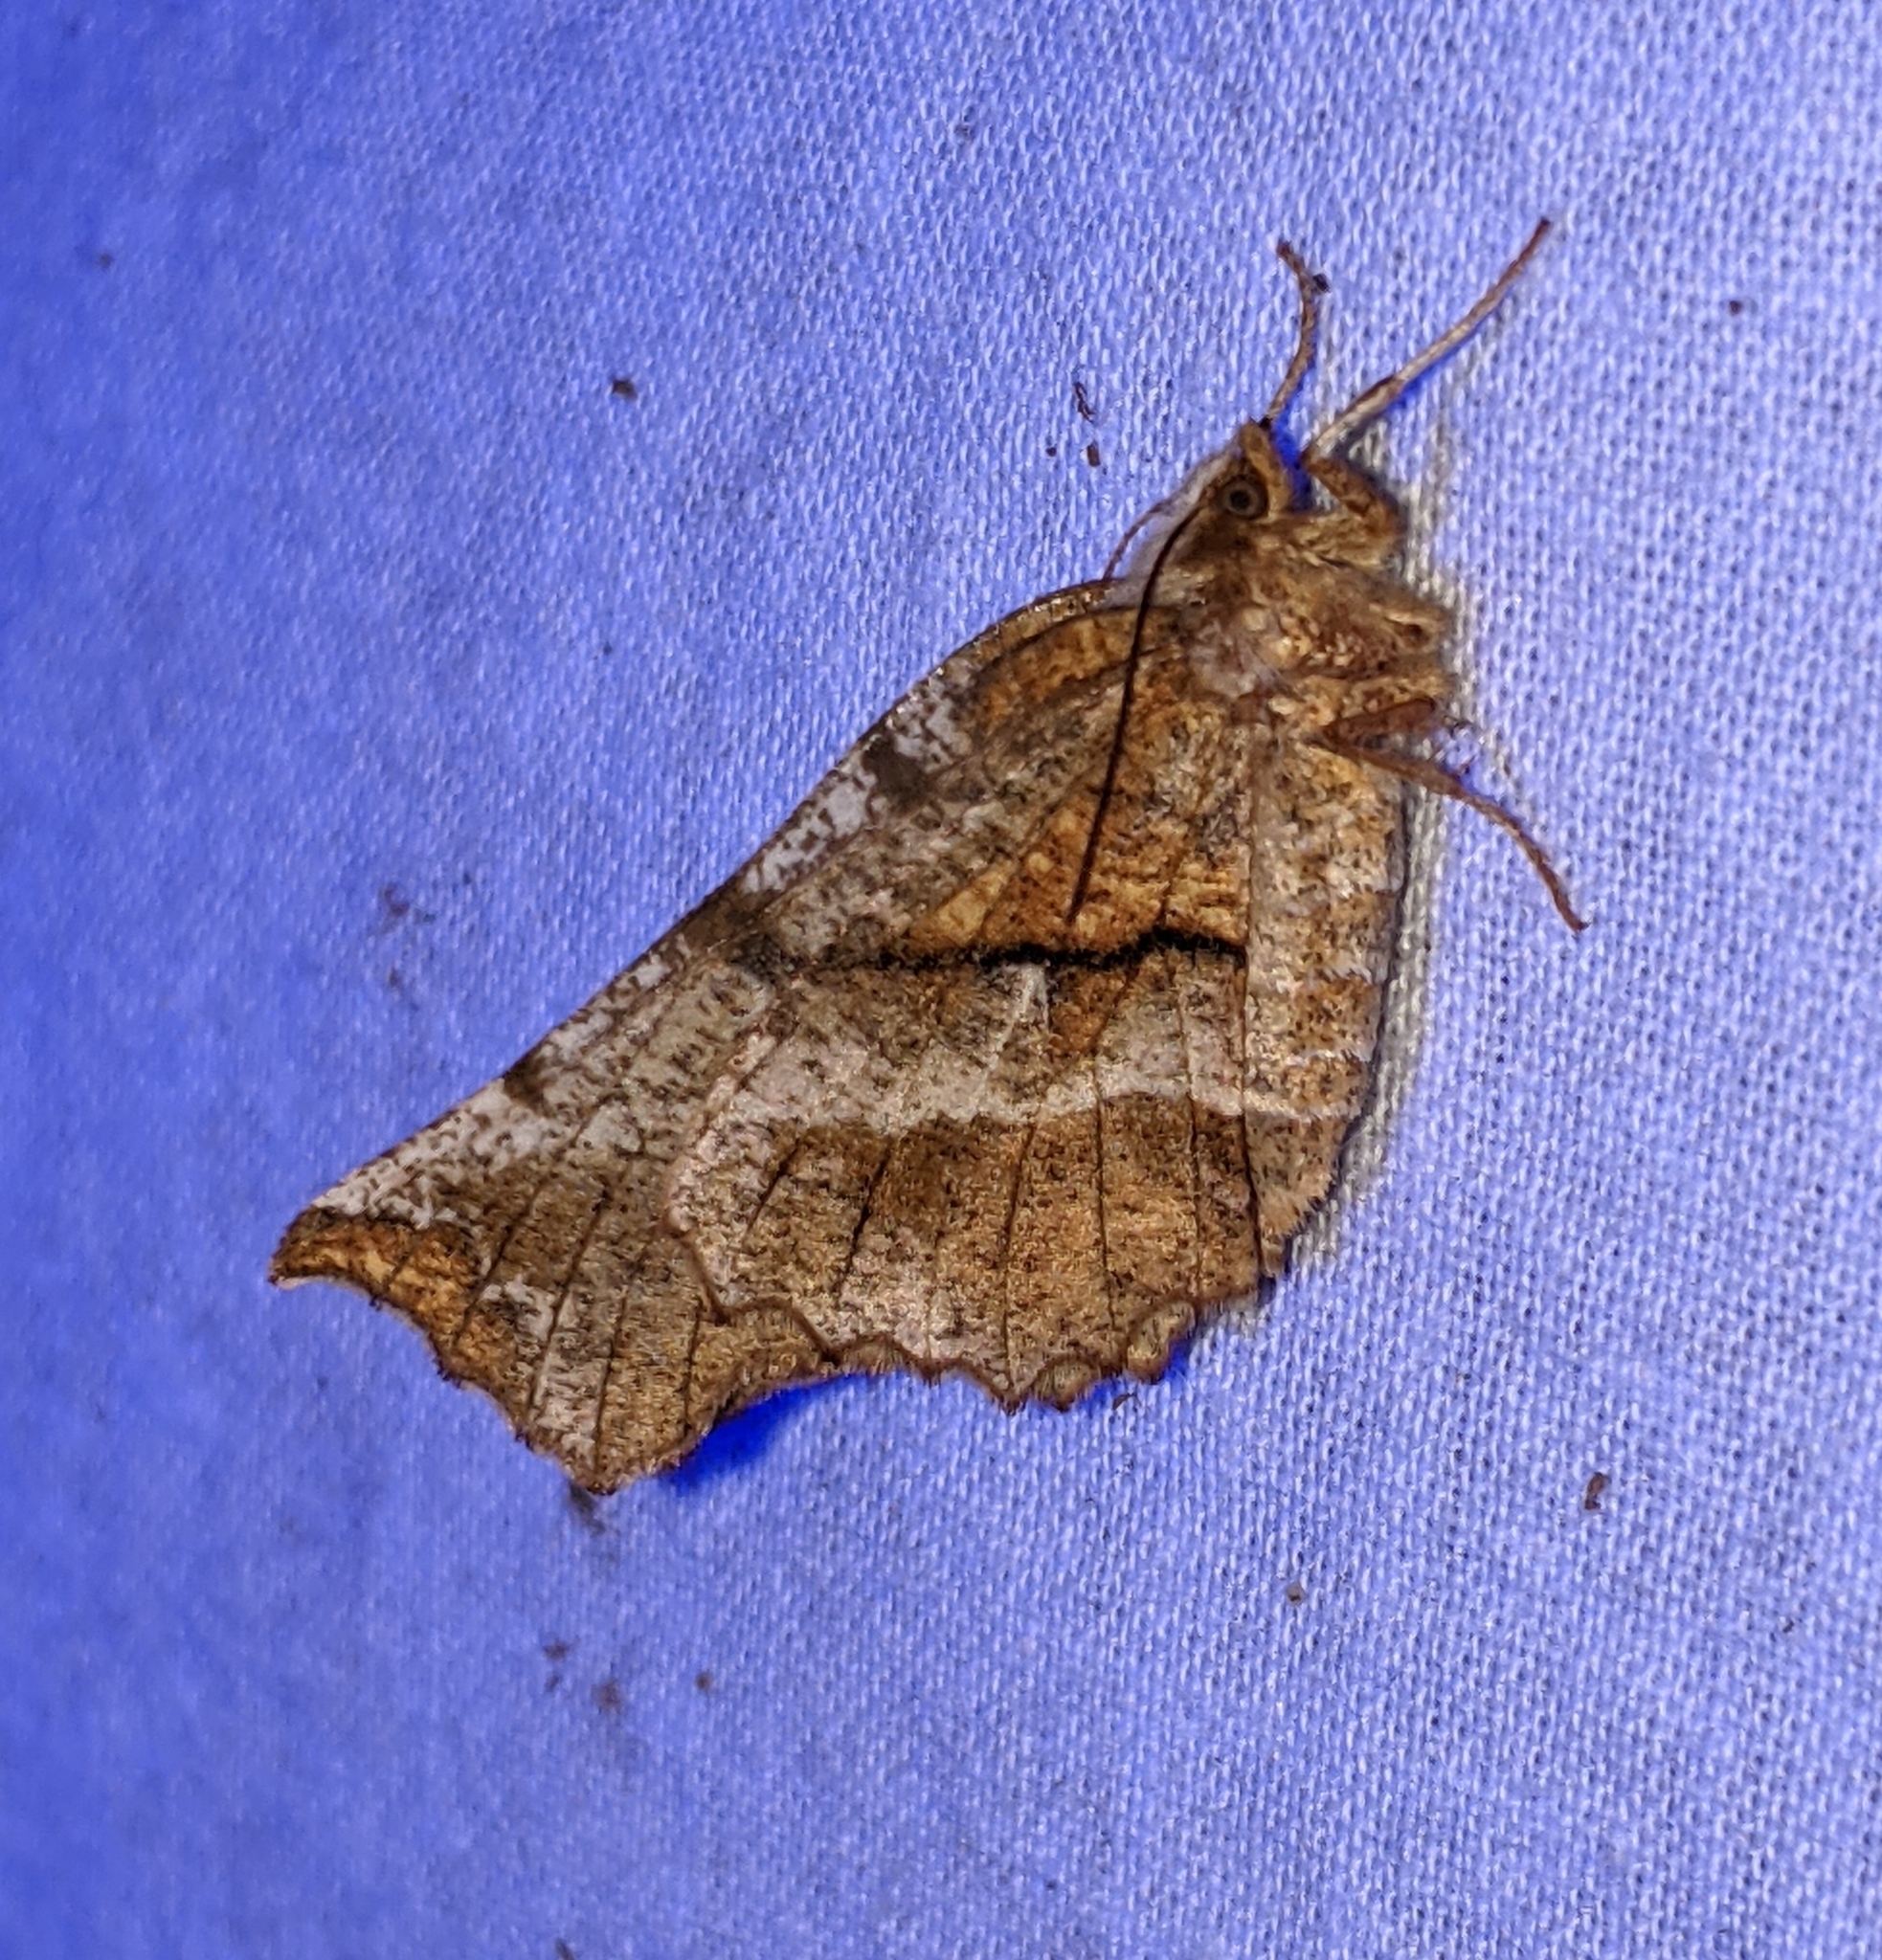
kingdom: Animalia
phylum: Arthropoda
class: Insecta
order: Lepidoptera
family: Geometridae
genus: Selenia
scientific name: Selenia alciphearia
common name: Brown-tipped thorn
